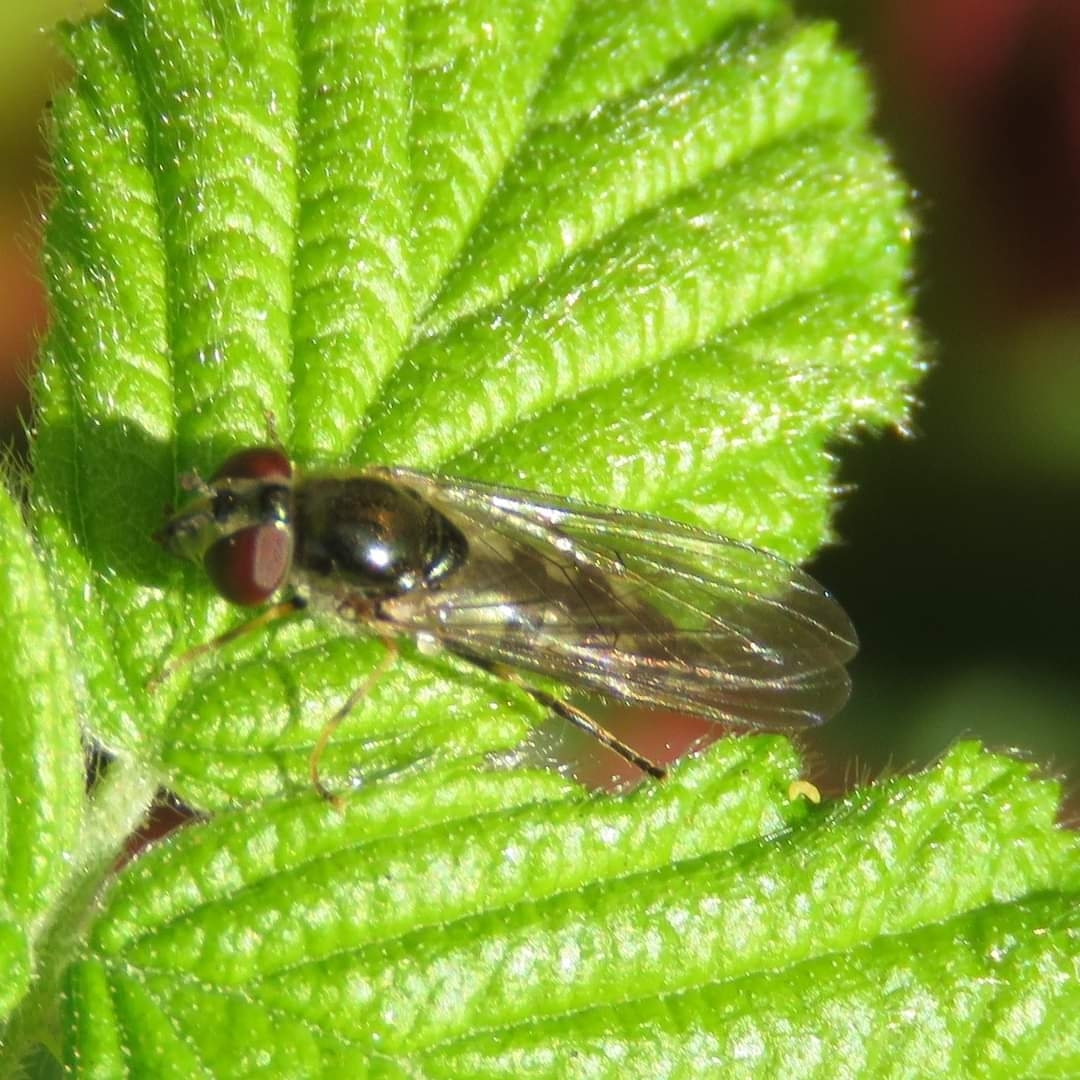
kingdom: Animalia
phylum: Arthropoda
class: Insecta
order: Diptera
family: Syrphidae
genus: Platycheirus
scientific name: Platycheirus ciliger
